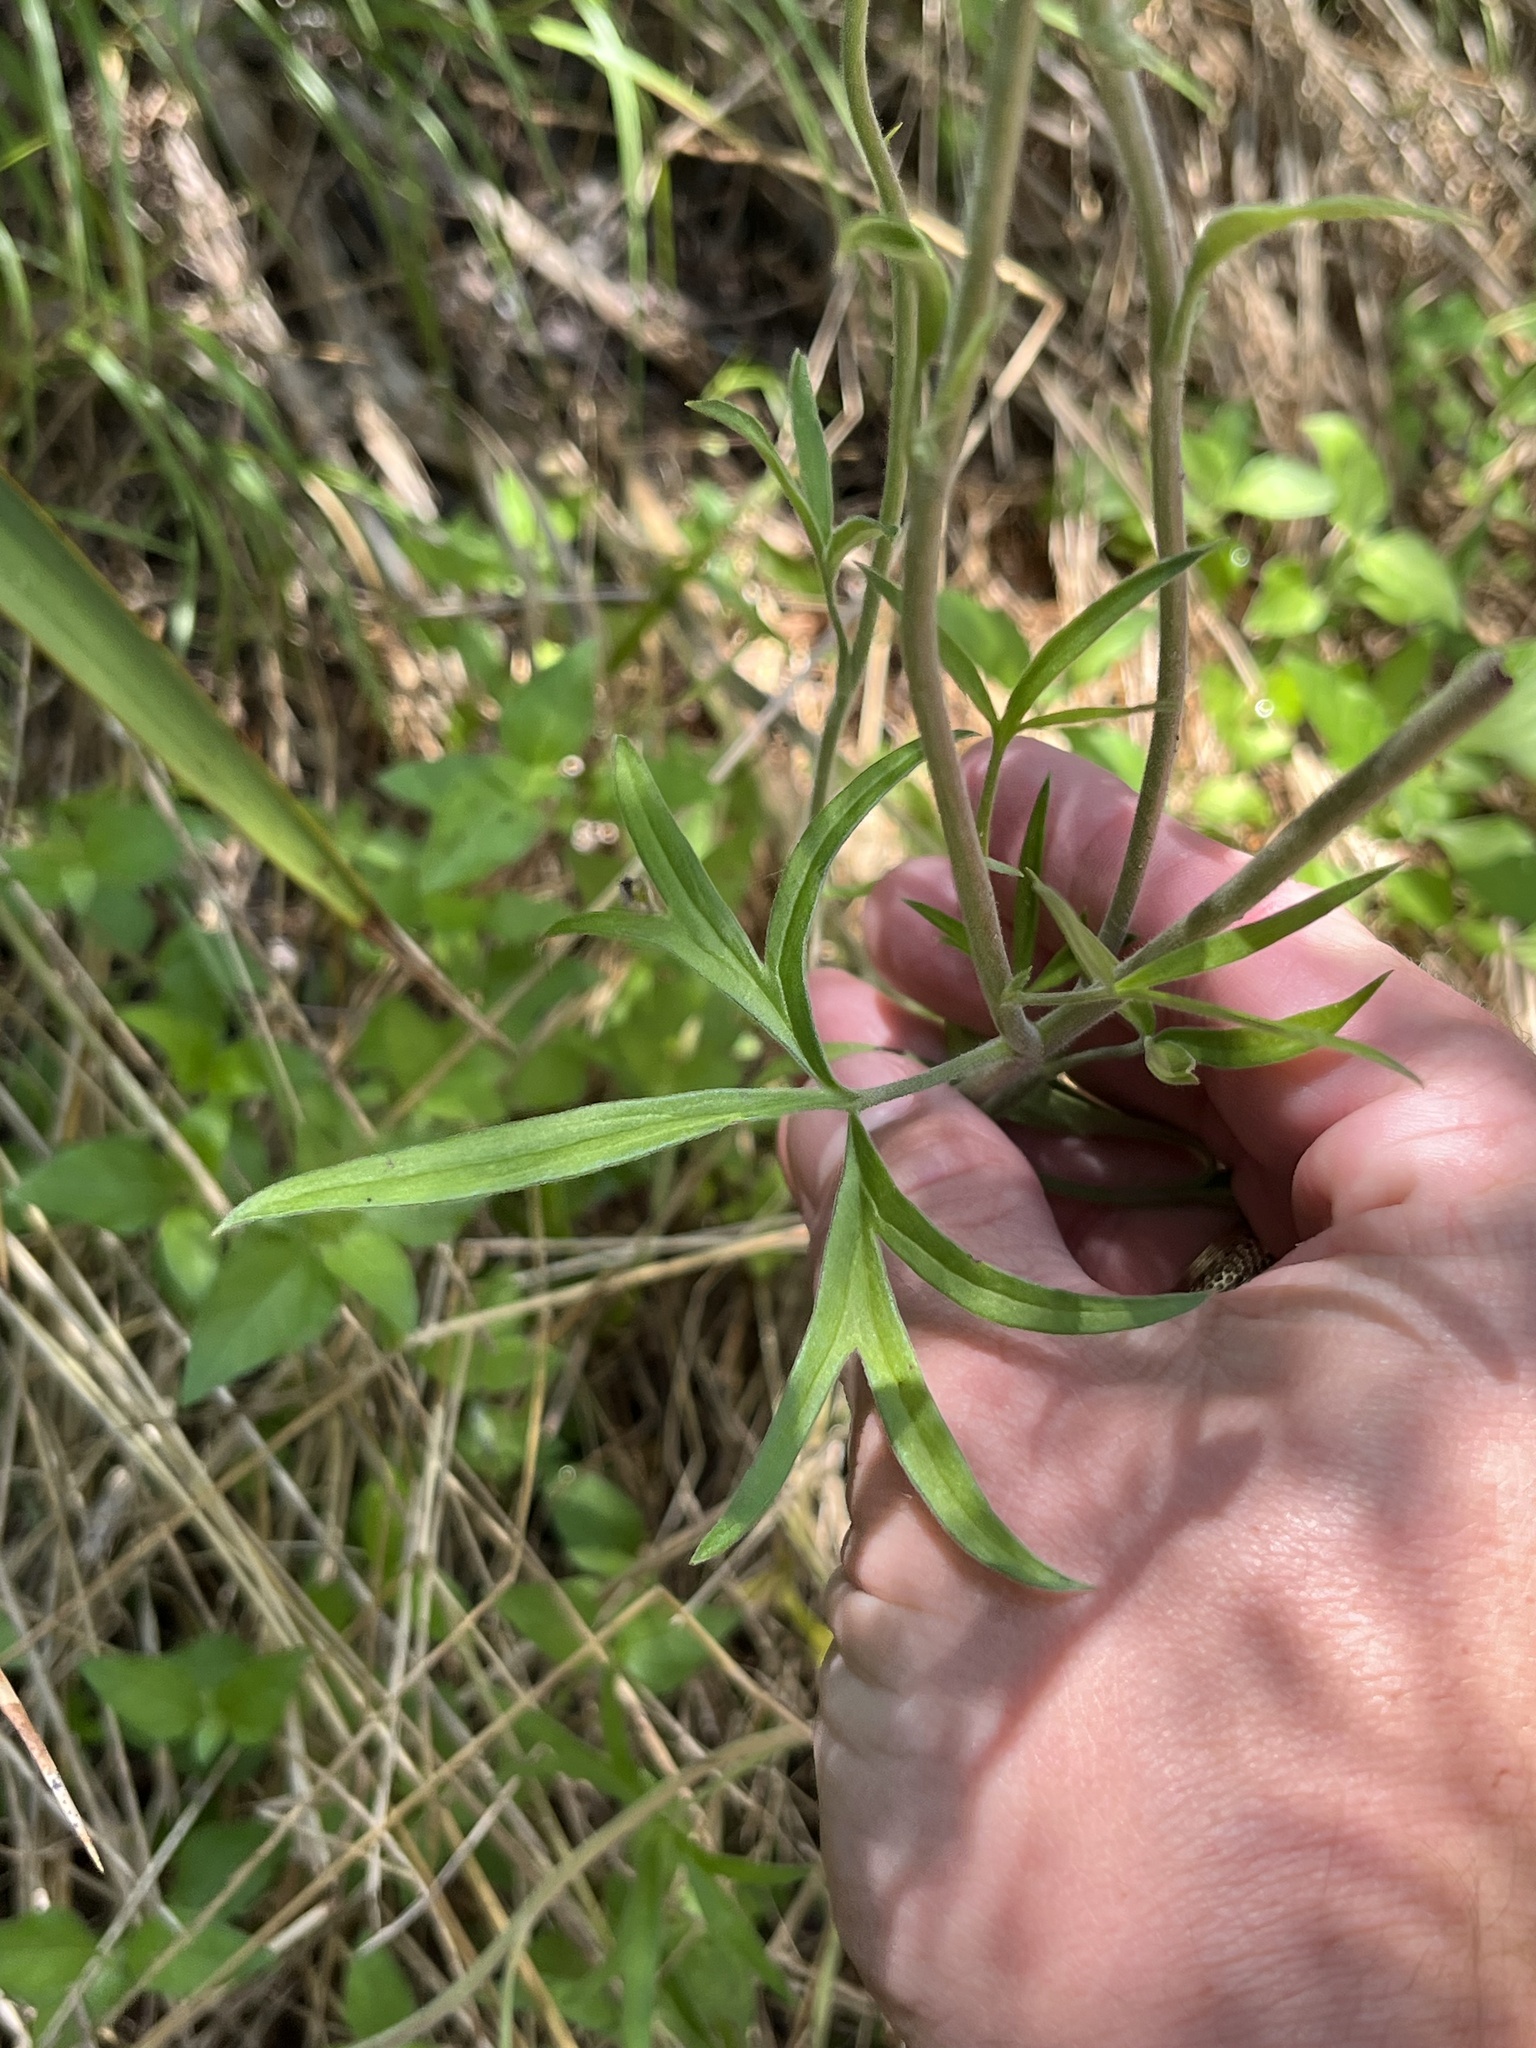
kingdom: Plantae
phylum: Tracheophyta
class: Magnoliopsida
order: Ranunculales
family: Ranunculaceae
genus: Delphinium
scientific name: Delphinium carolinianum
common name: Carolina larkspur
